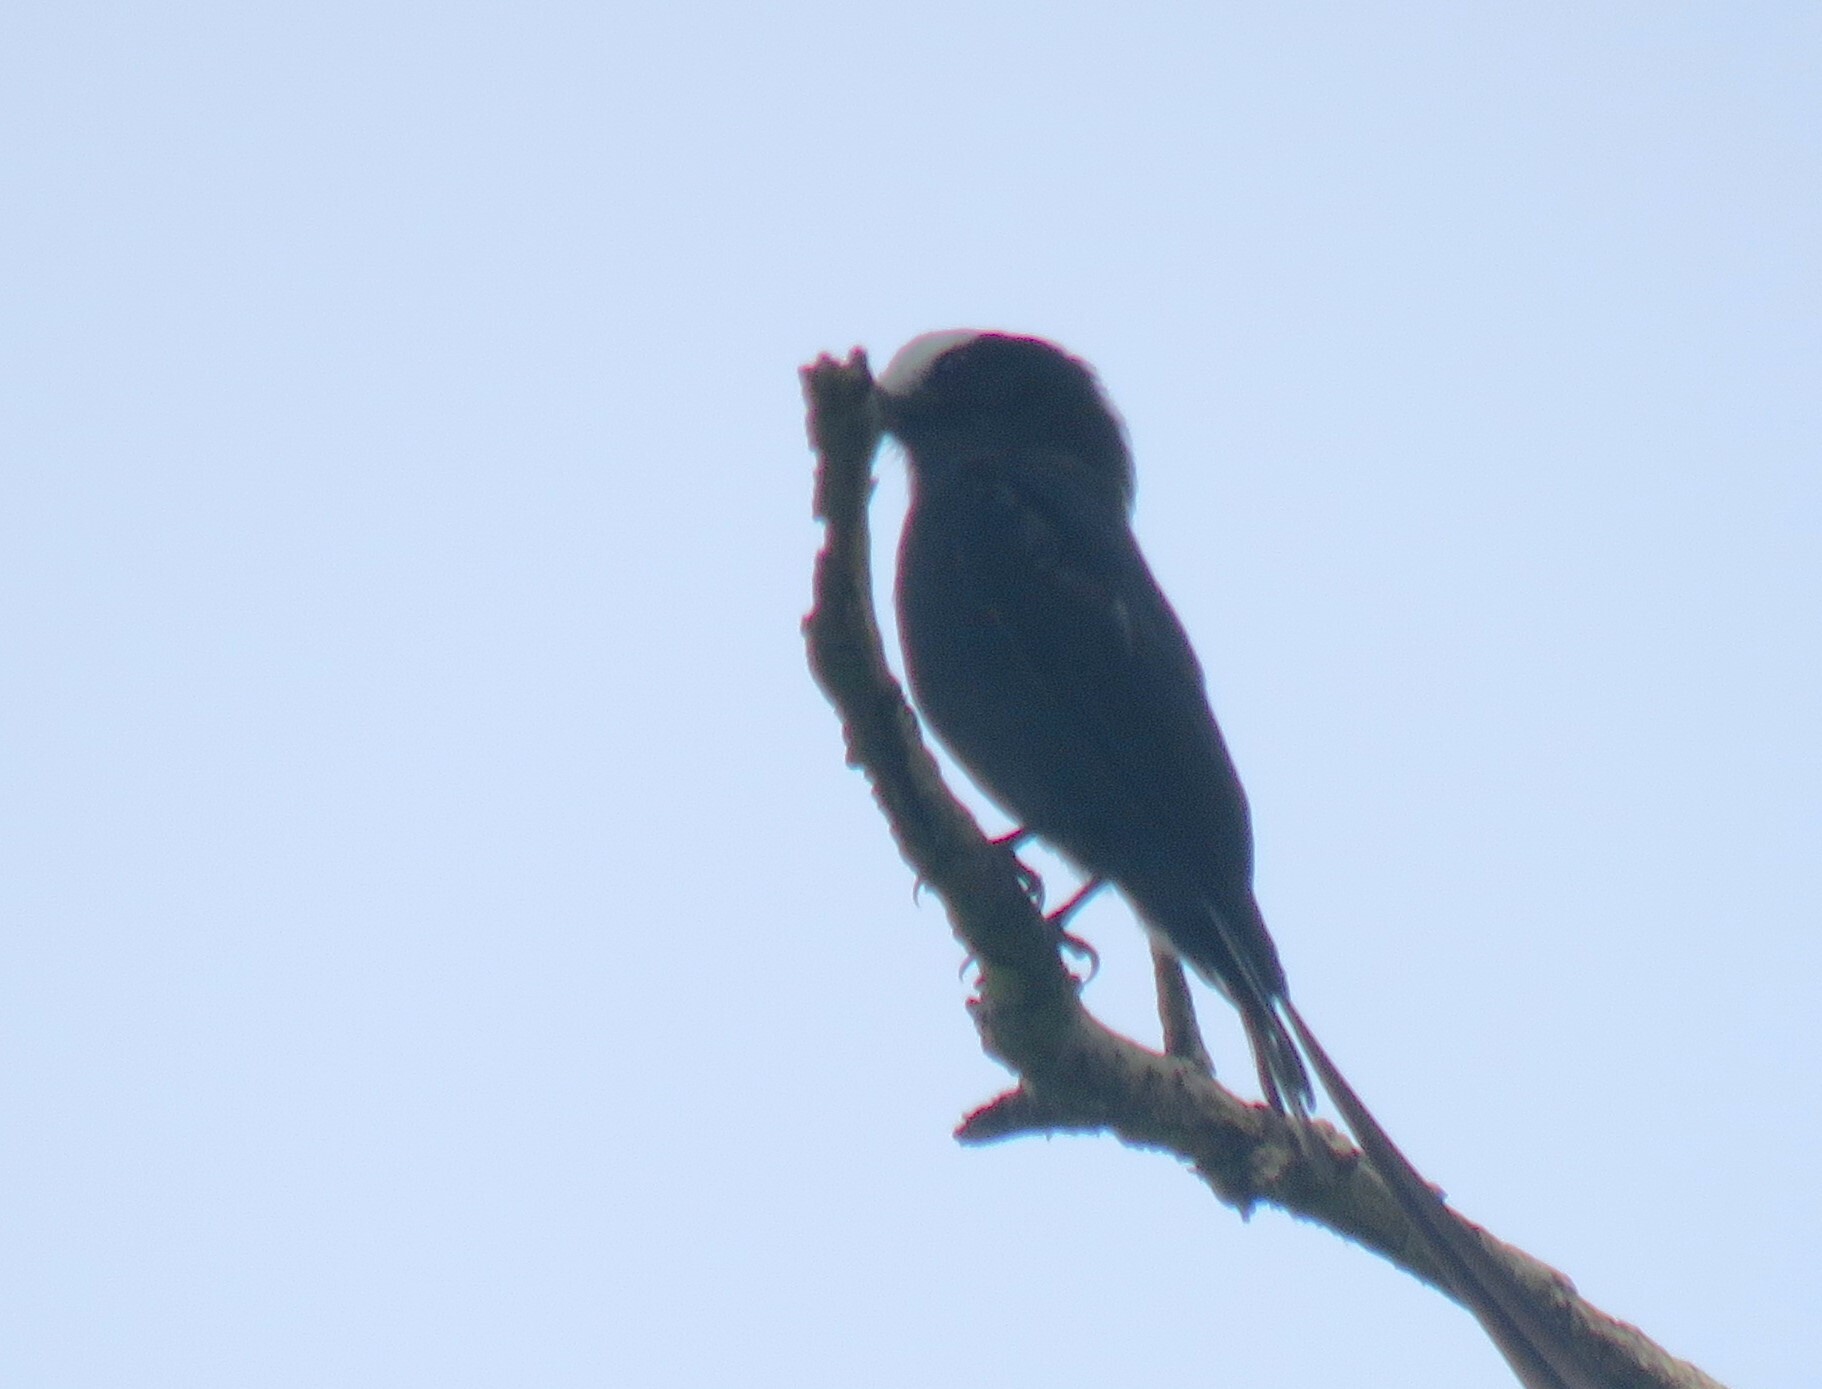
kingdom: Animalia
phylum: Chordata
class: Aves
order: Passeriformes
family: Tyrannidae
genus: Colonia
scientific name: Colonia colonus
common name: Long-tailed tyrant
